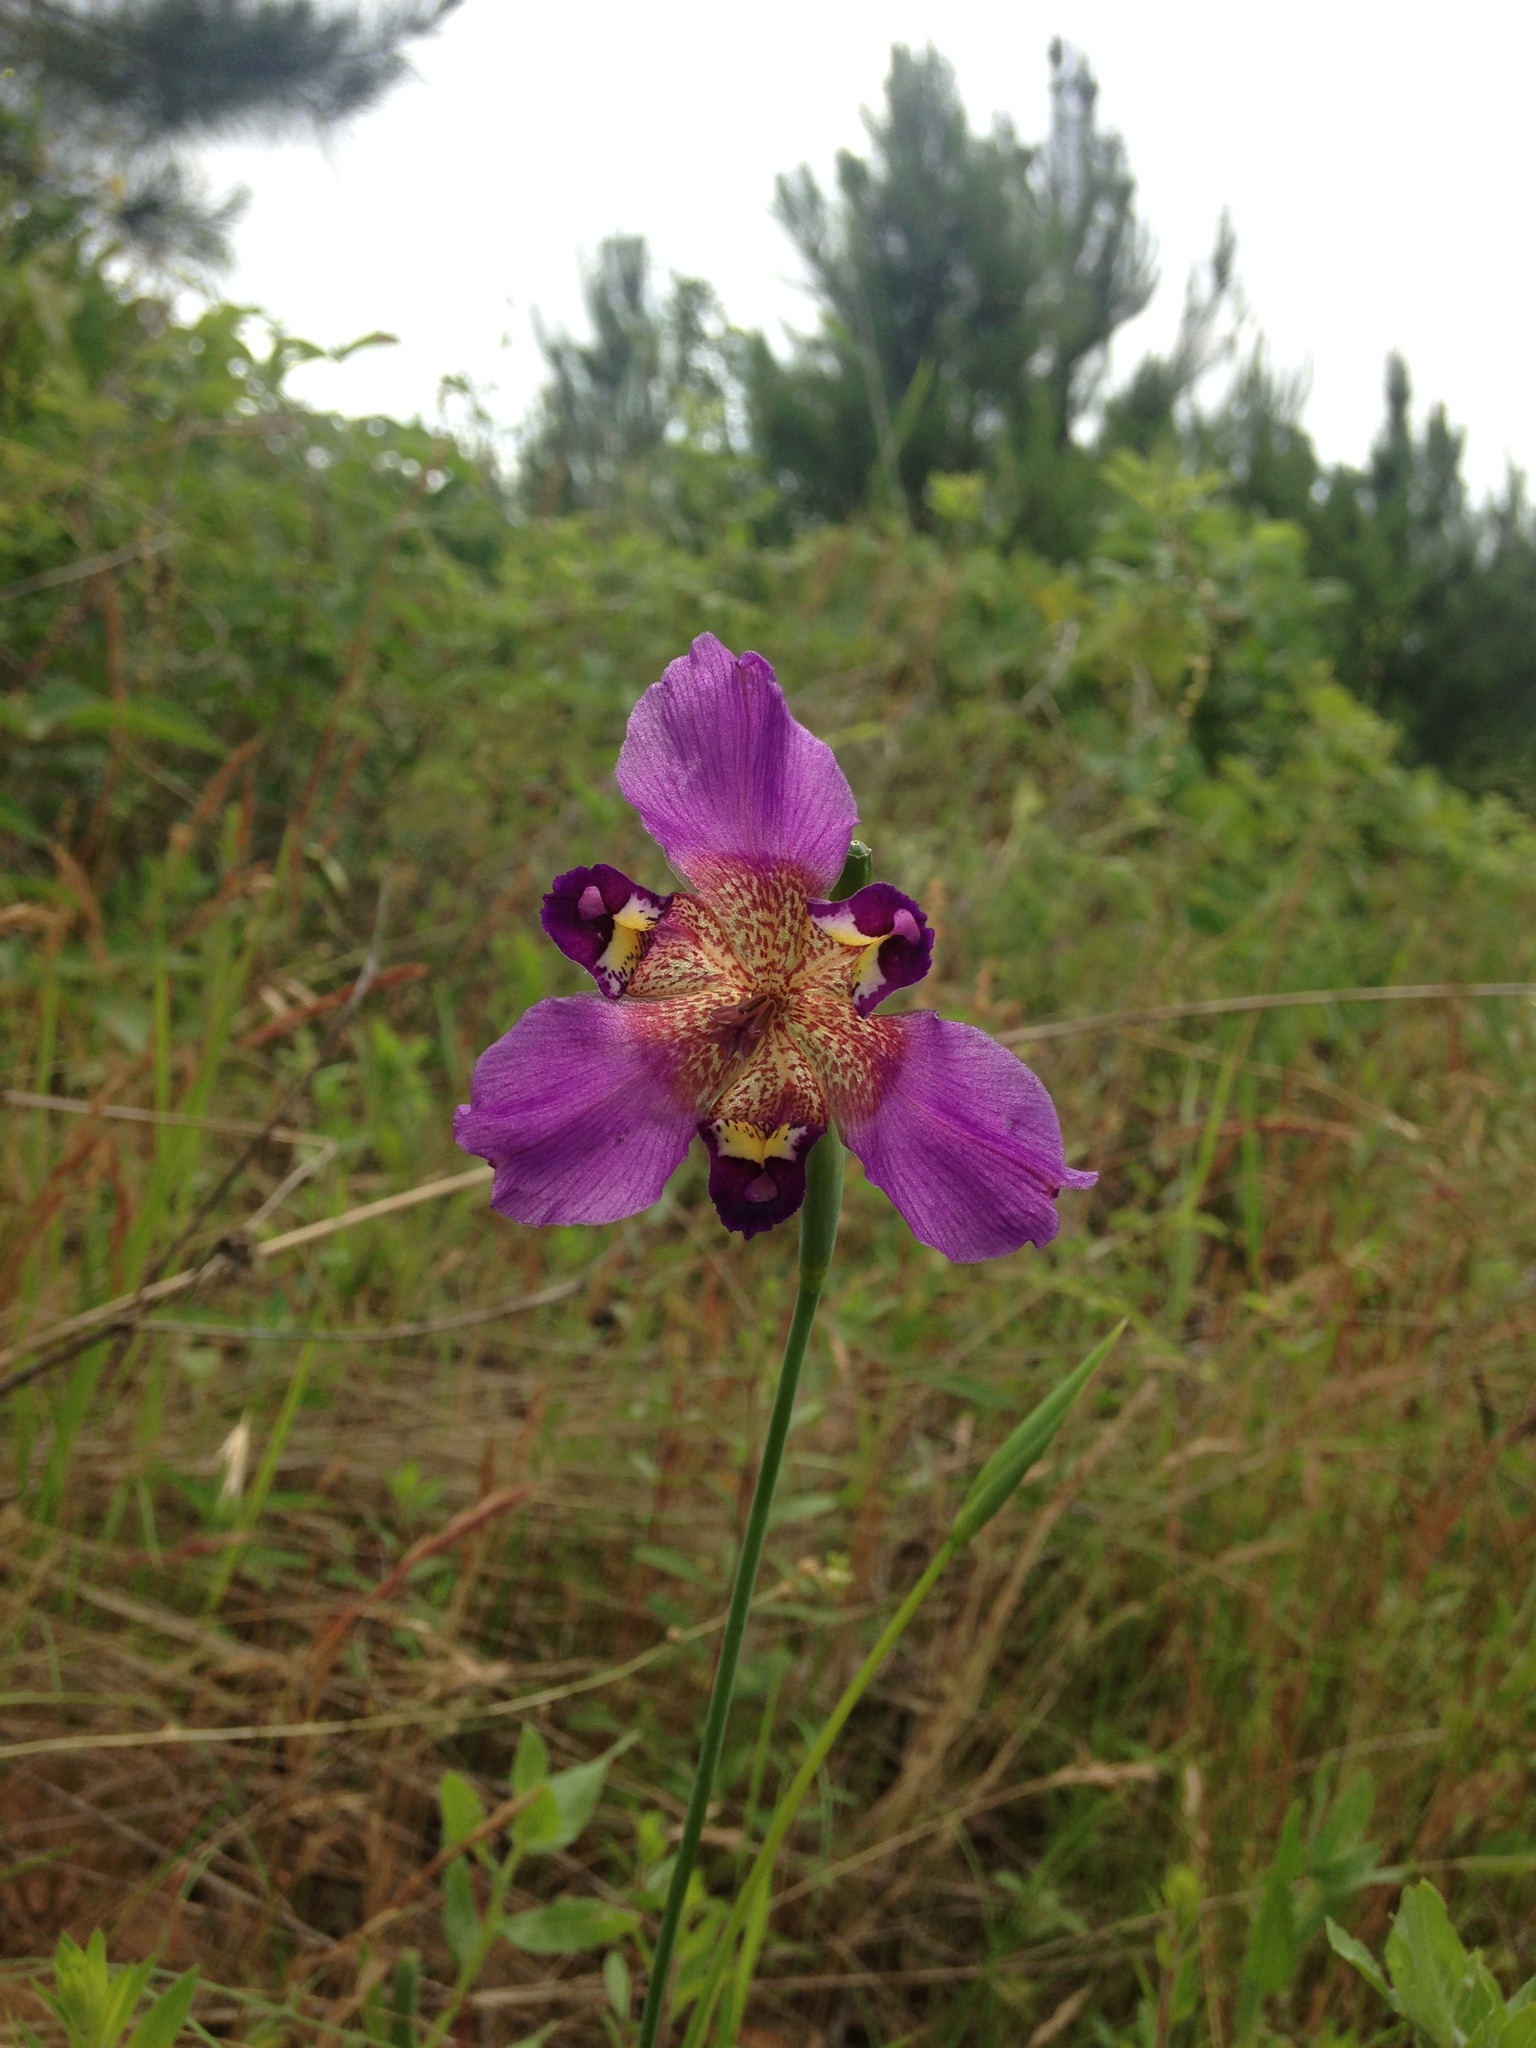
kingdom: Plantae
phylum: Tracheophyta
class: Liliopsida
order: Asparagales
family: Iridaceae
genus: Alophia
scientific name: Alophia drummondii
